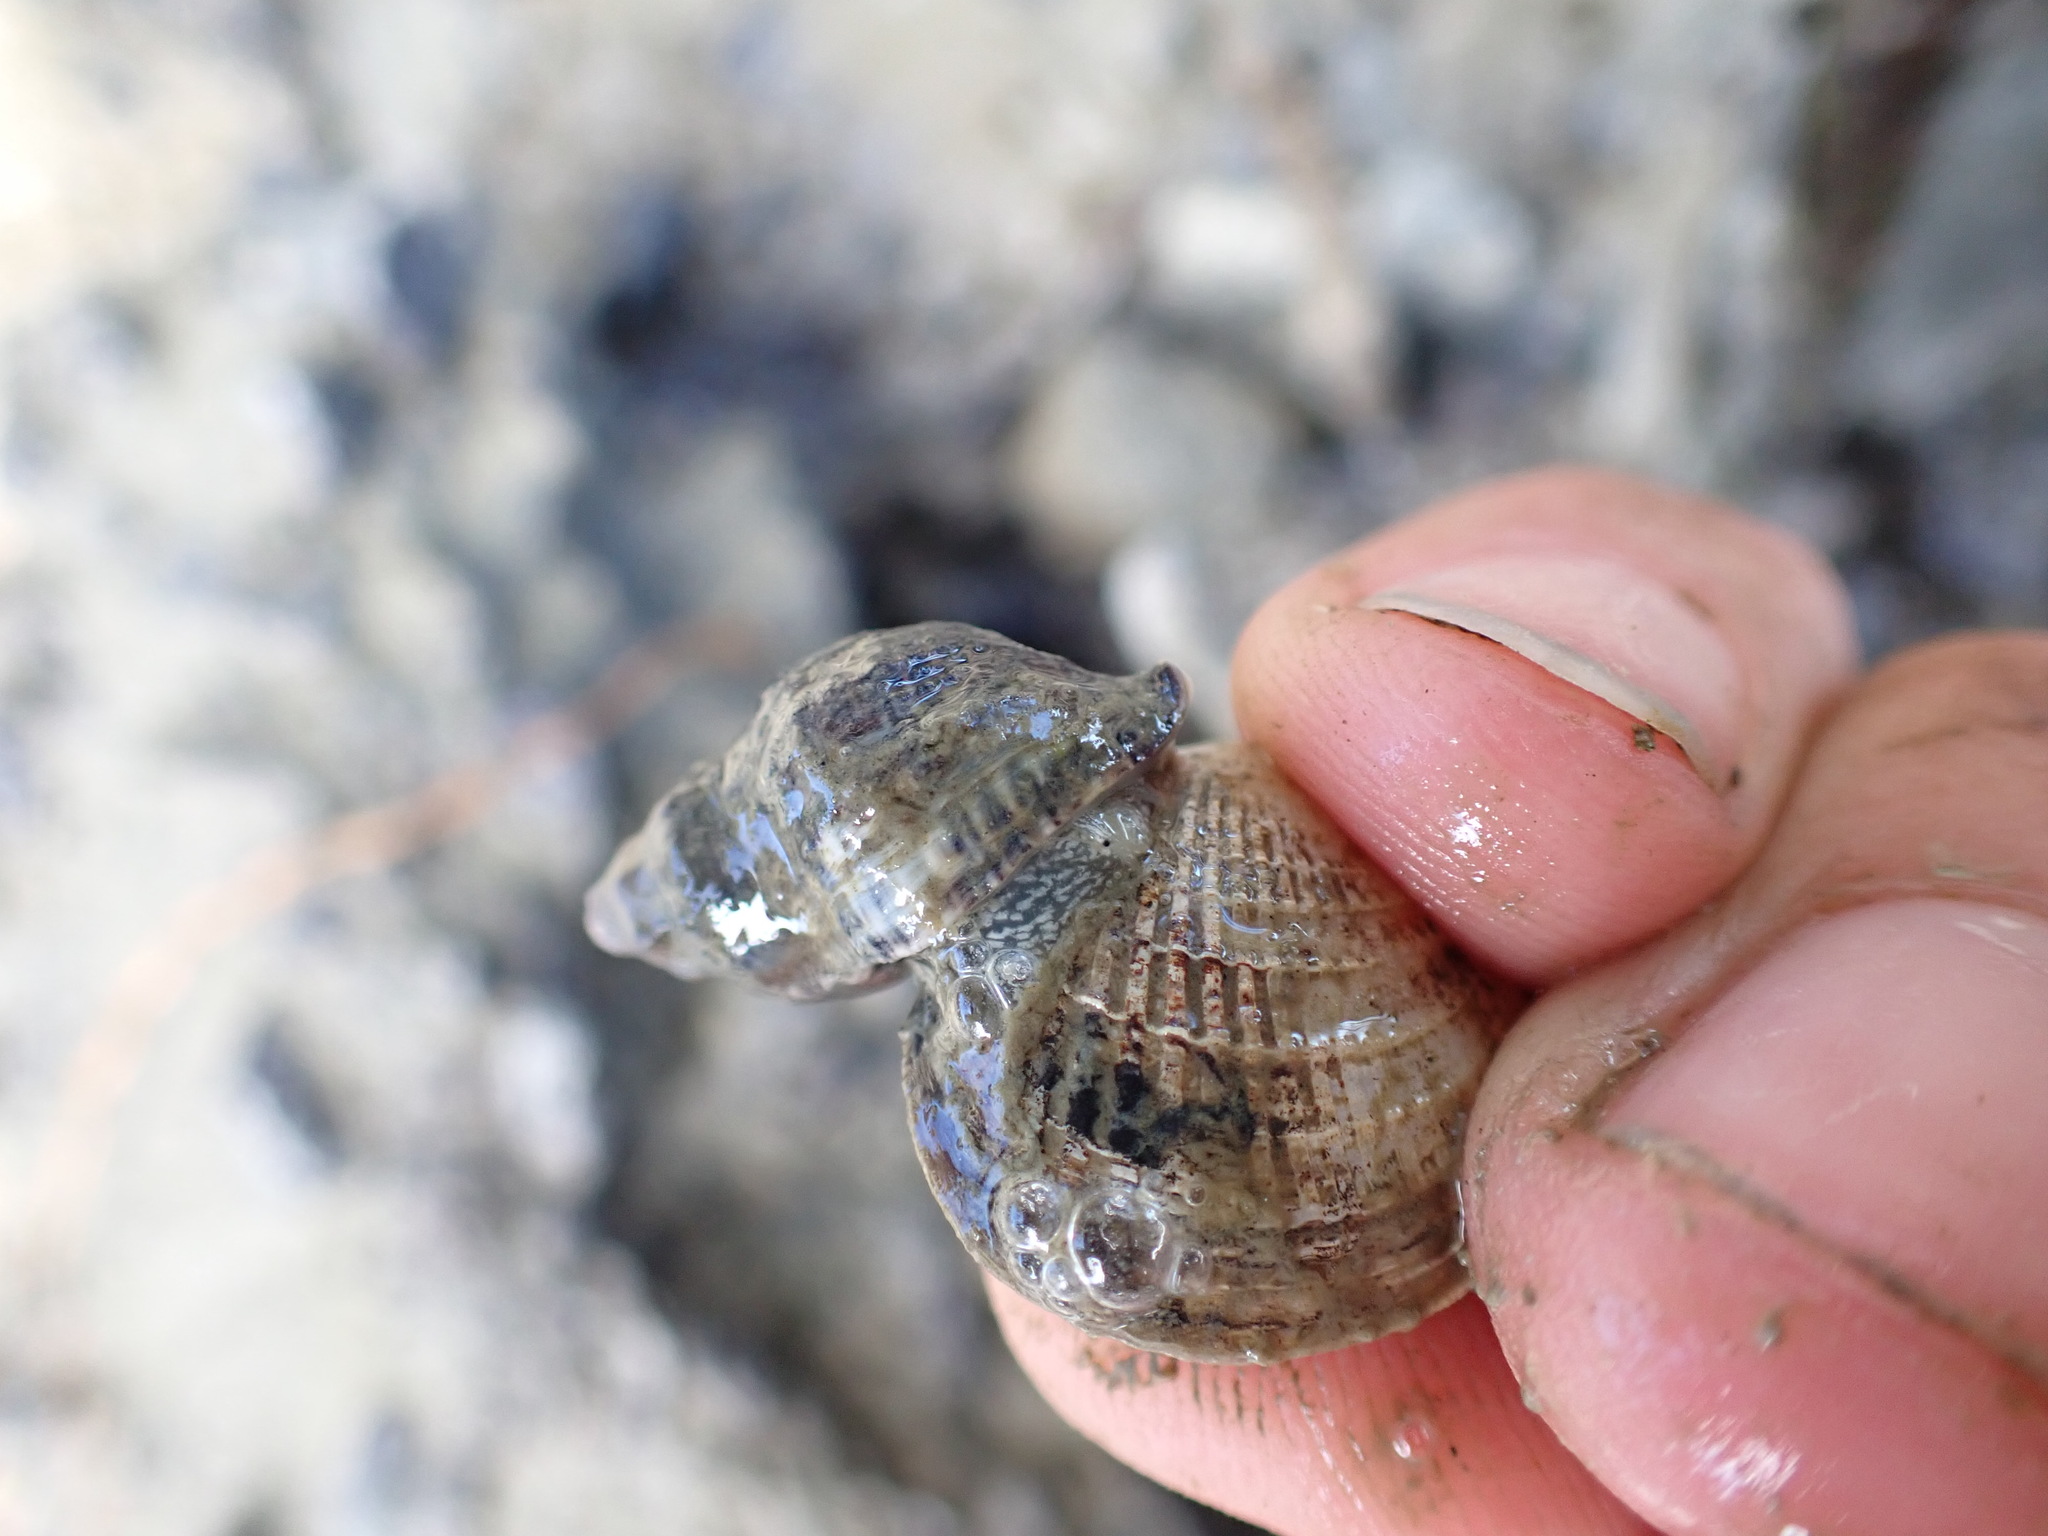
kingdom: Animalia
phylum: Mollusca
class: Gastropoda
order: Neogastropoda
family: Muricidae
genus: Haustrum
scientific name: Haustrum albomarginatum
